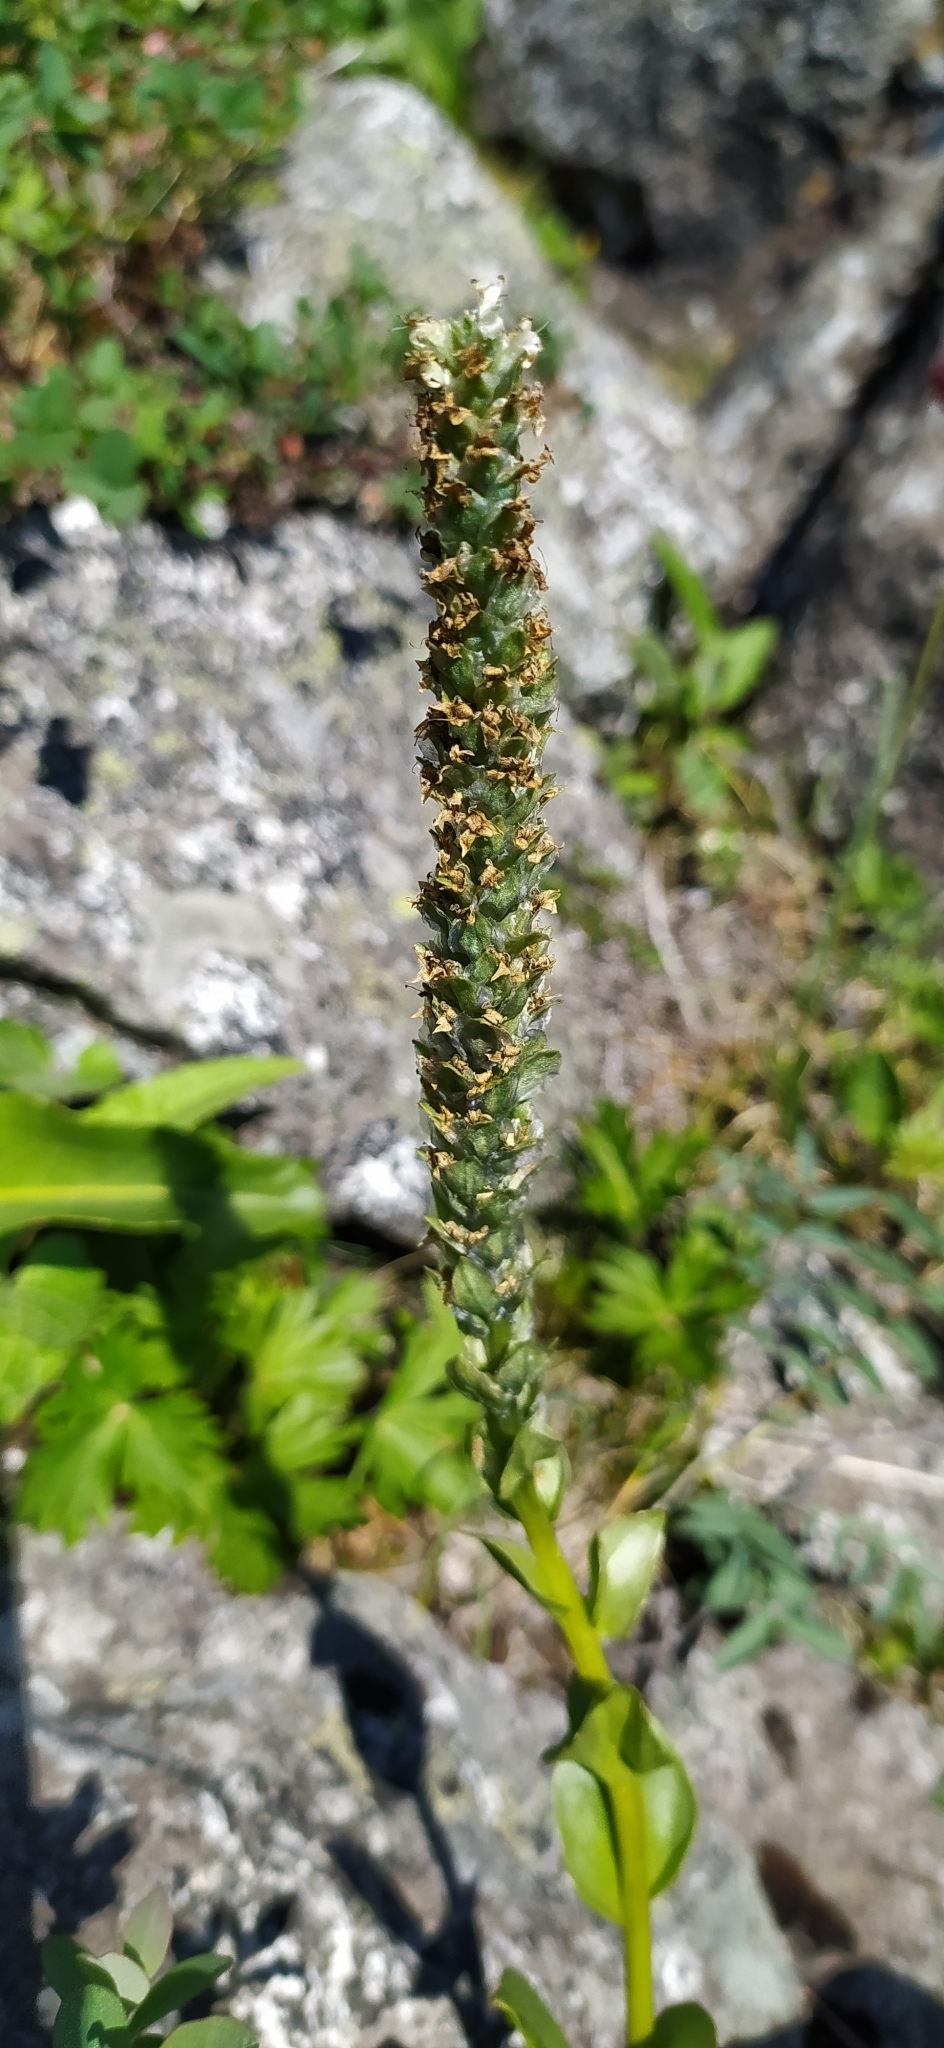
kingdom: Plantae
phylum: Tracheophyta
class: Magnoliopsida
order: Lamiales
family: Plantaginaceae
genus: Lagotis
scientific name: Lagotis uralensis
